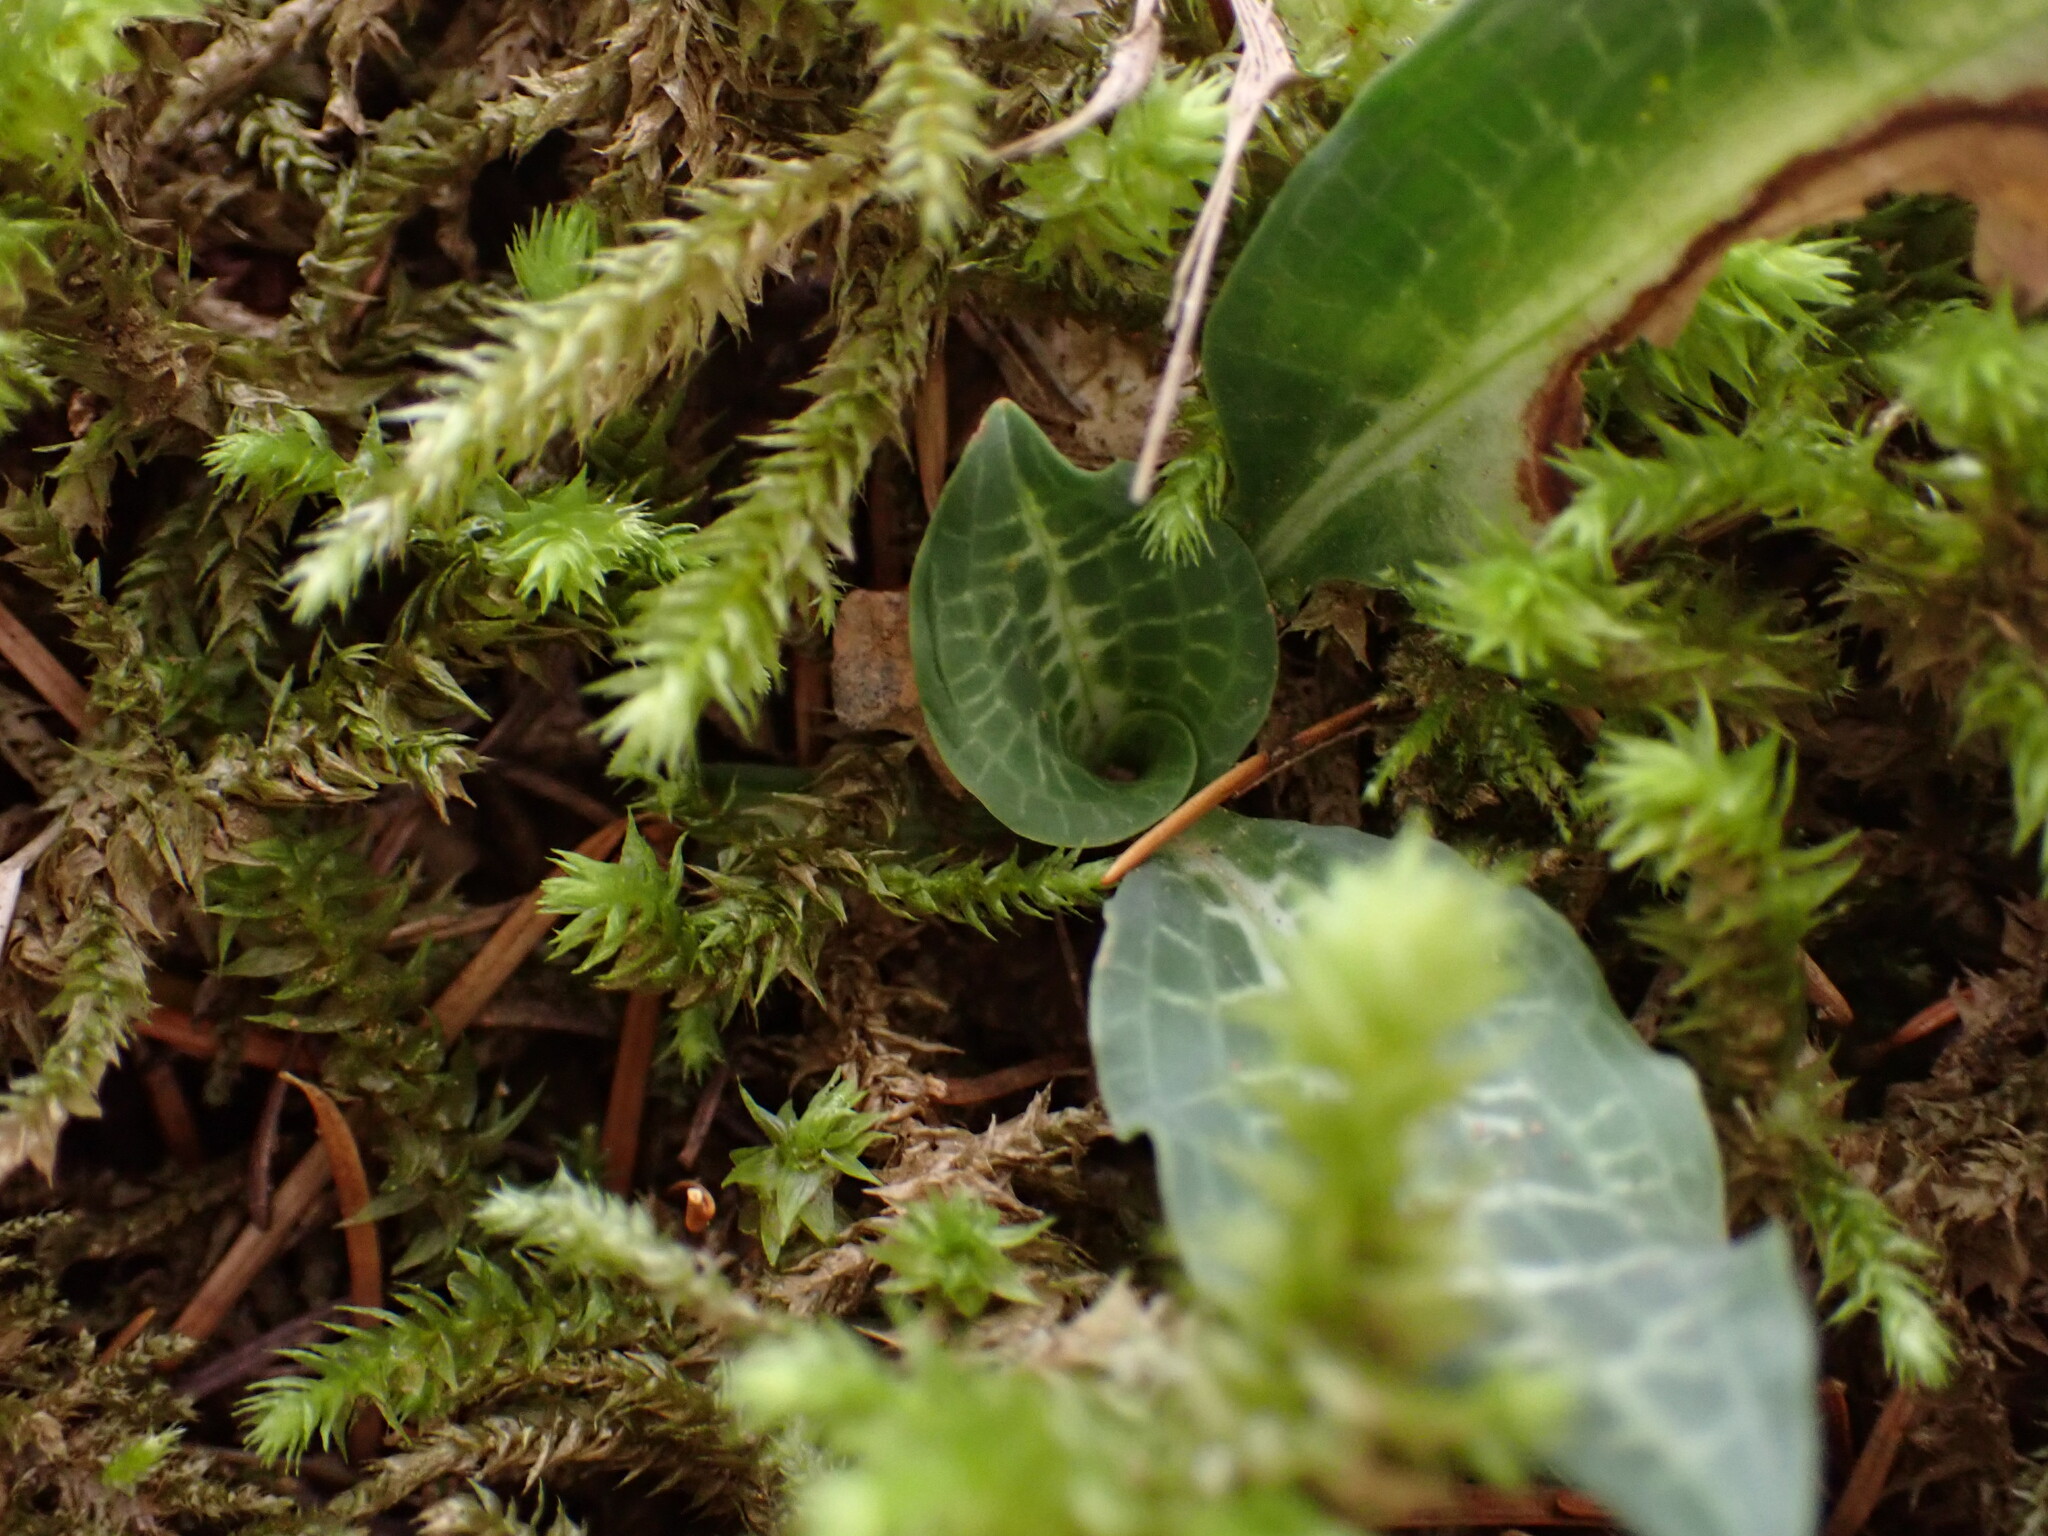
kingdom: Plantae
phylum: Tracheophyta
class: Liliopsida
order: Asparagales
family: Orchidaceae
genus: Goodyera
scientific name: Goodyera oblongifolia
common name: Giant rattlesnake-plantain
